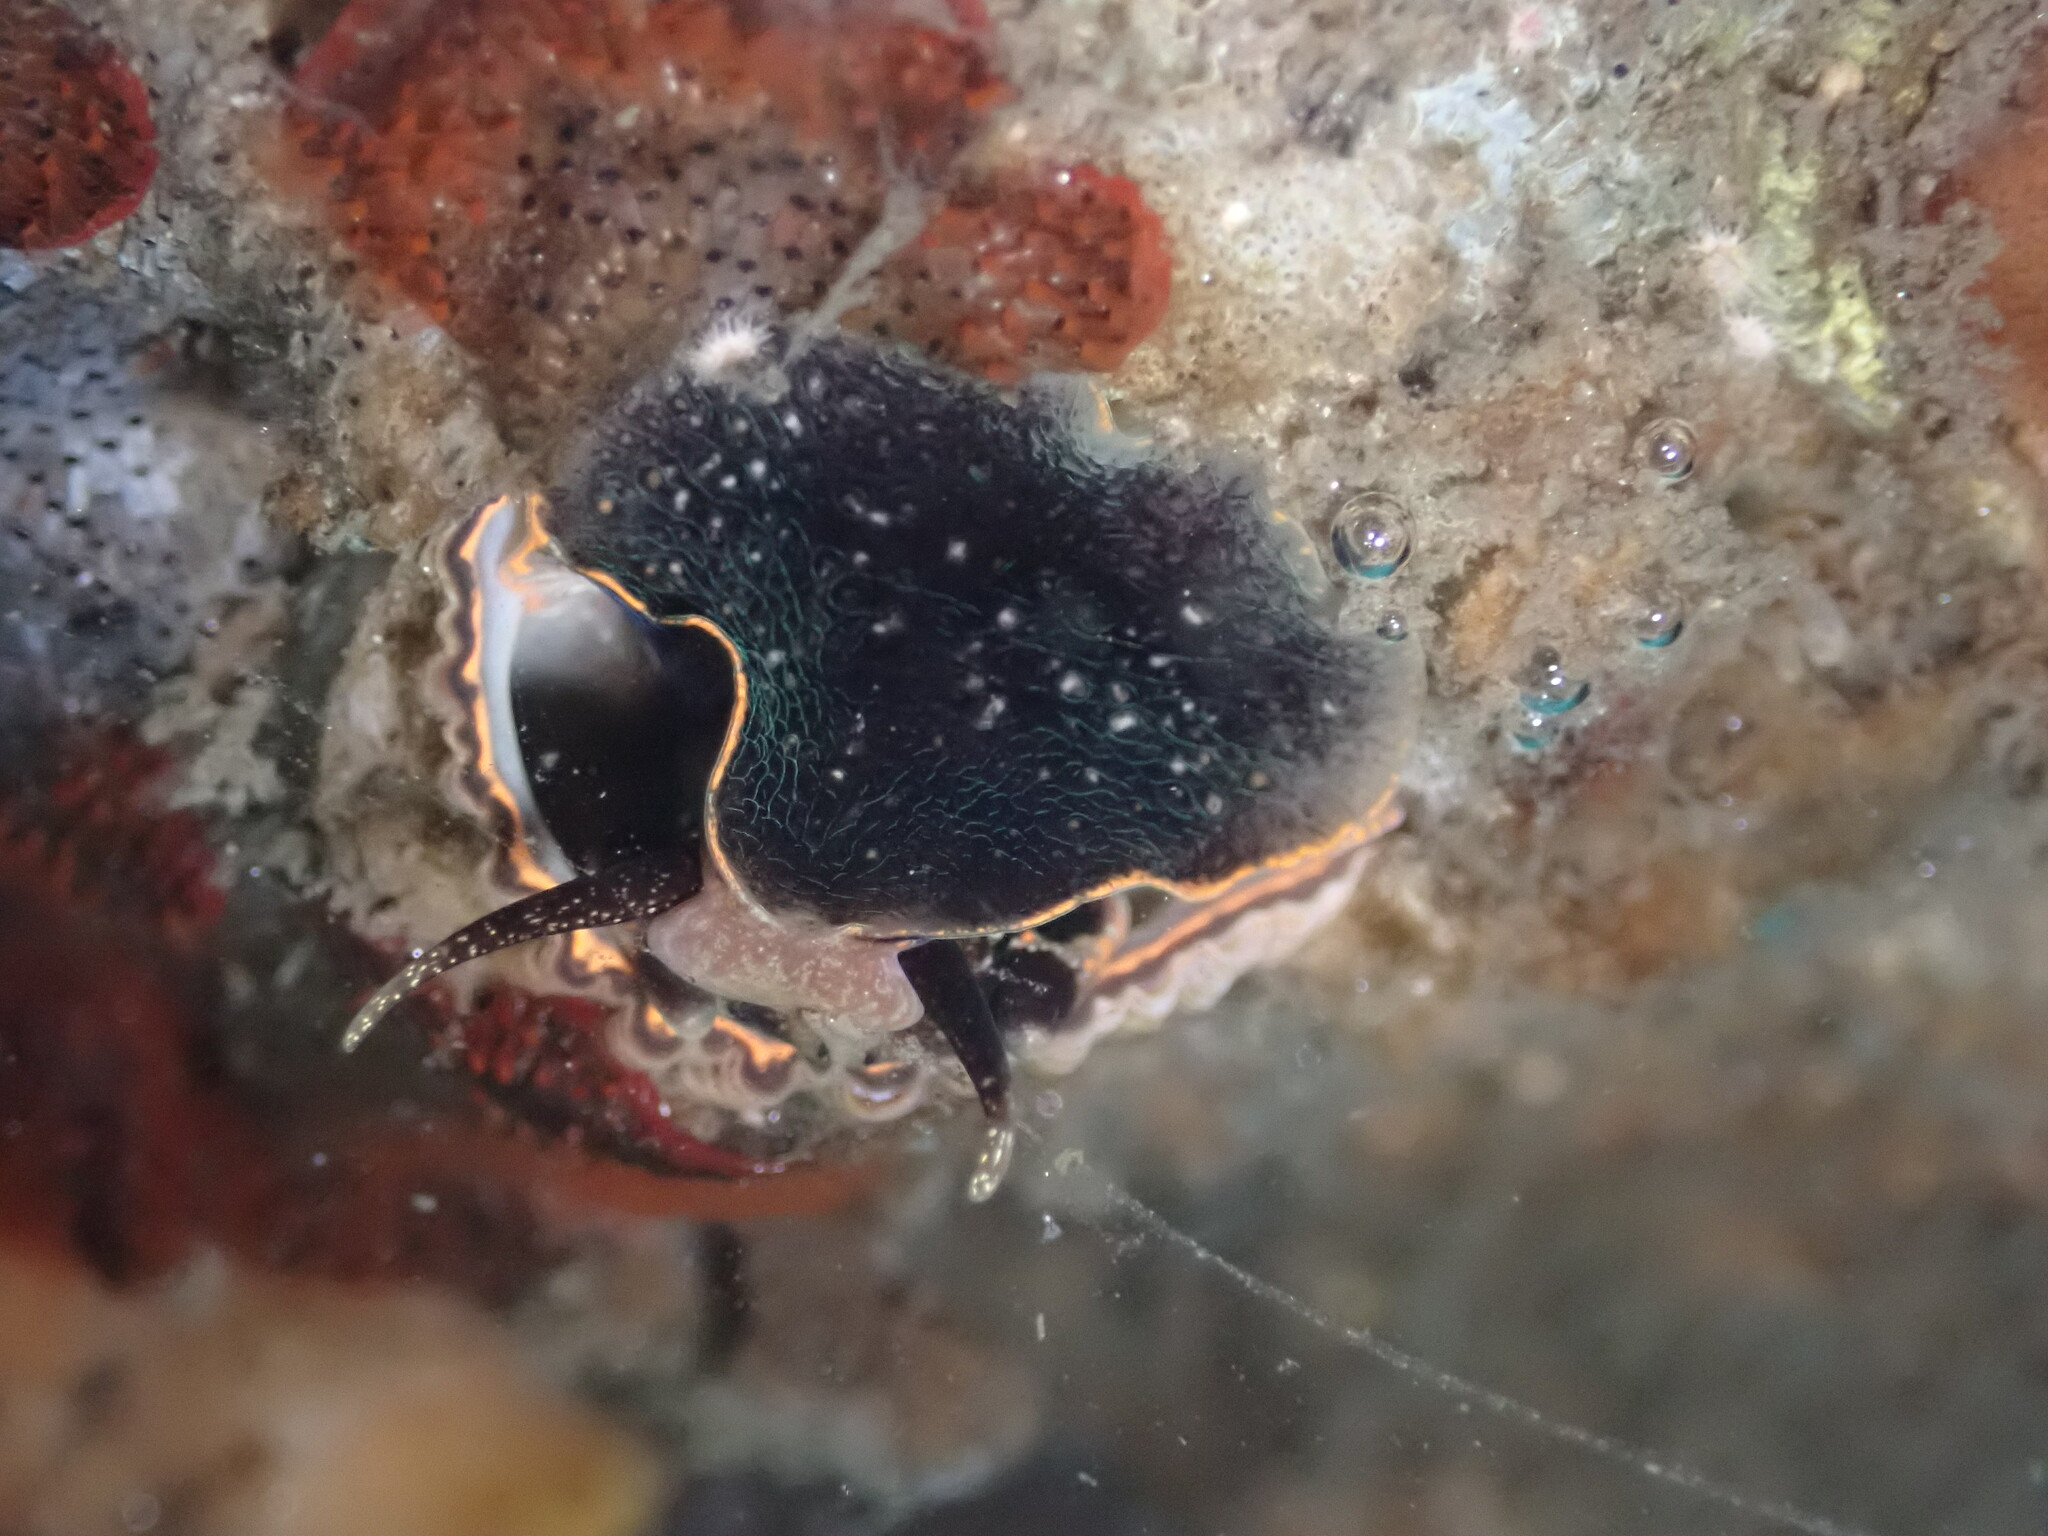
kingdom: Animalia
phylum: Mollusca
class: Gastropoda
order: Littorinimorpha
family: Vermetidae
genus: Thylacodes
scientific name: Thylacodes squamigerus
